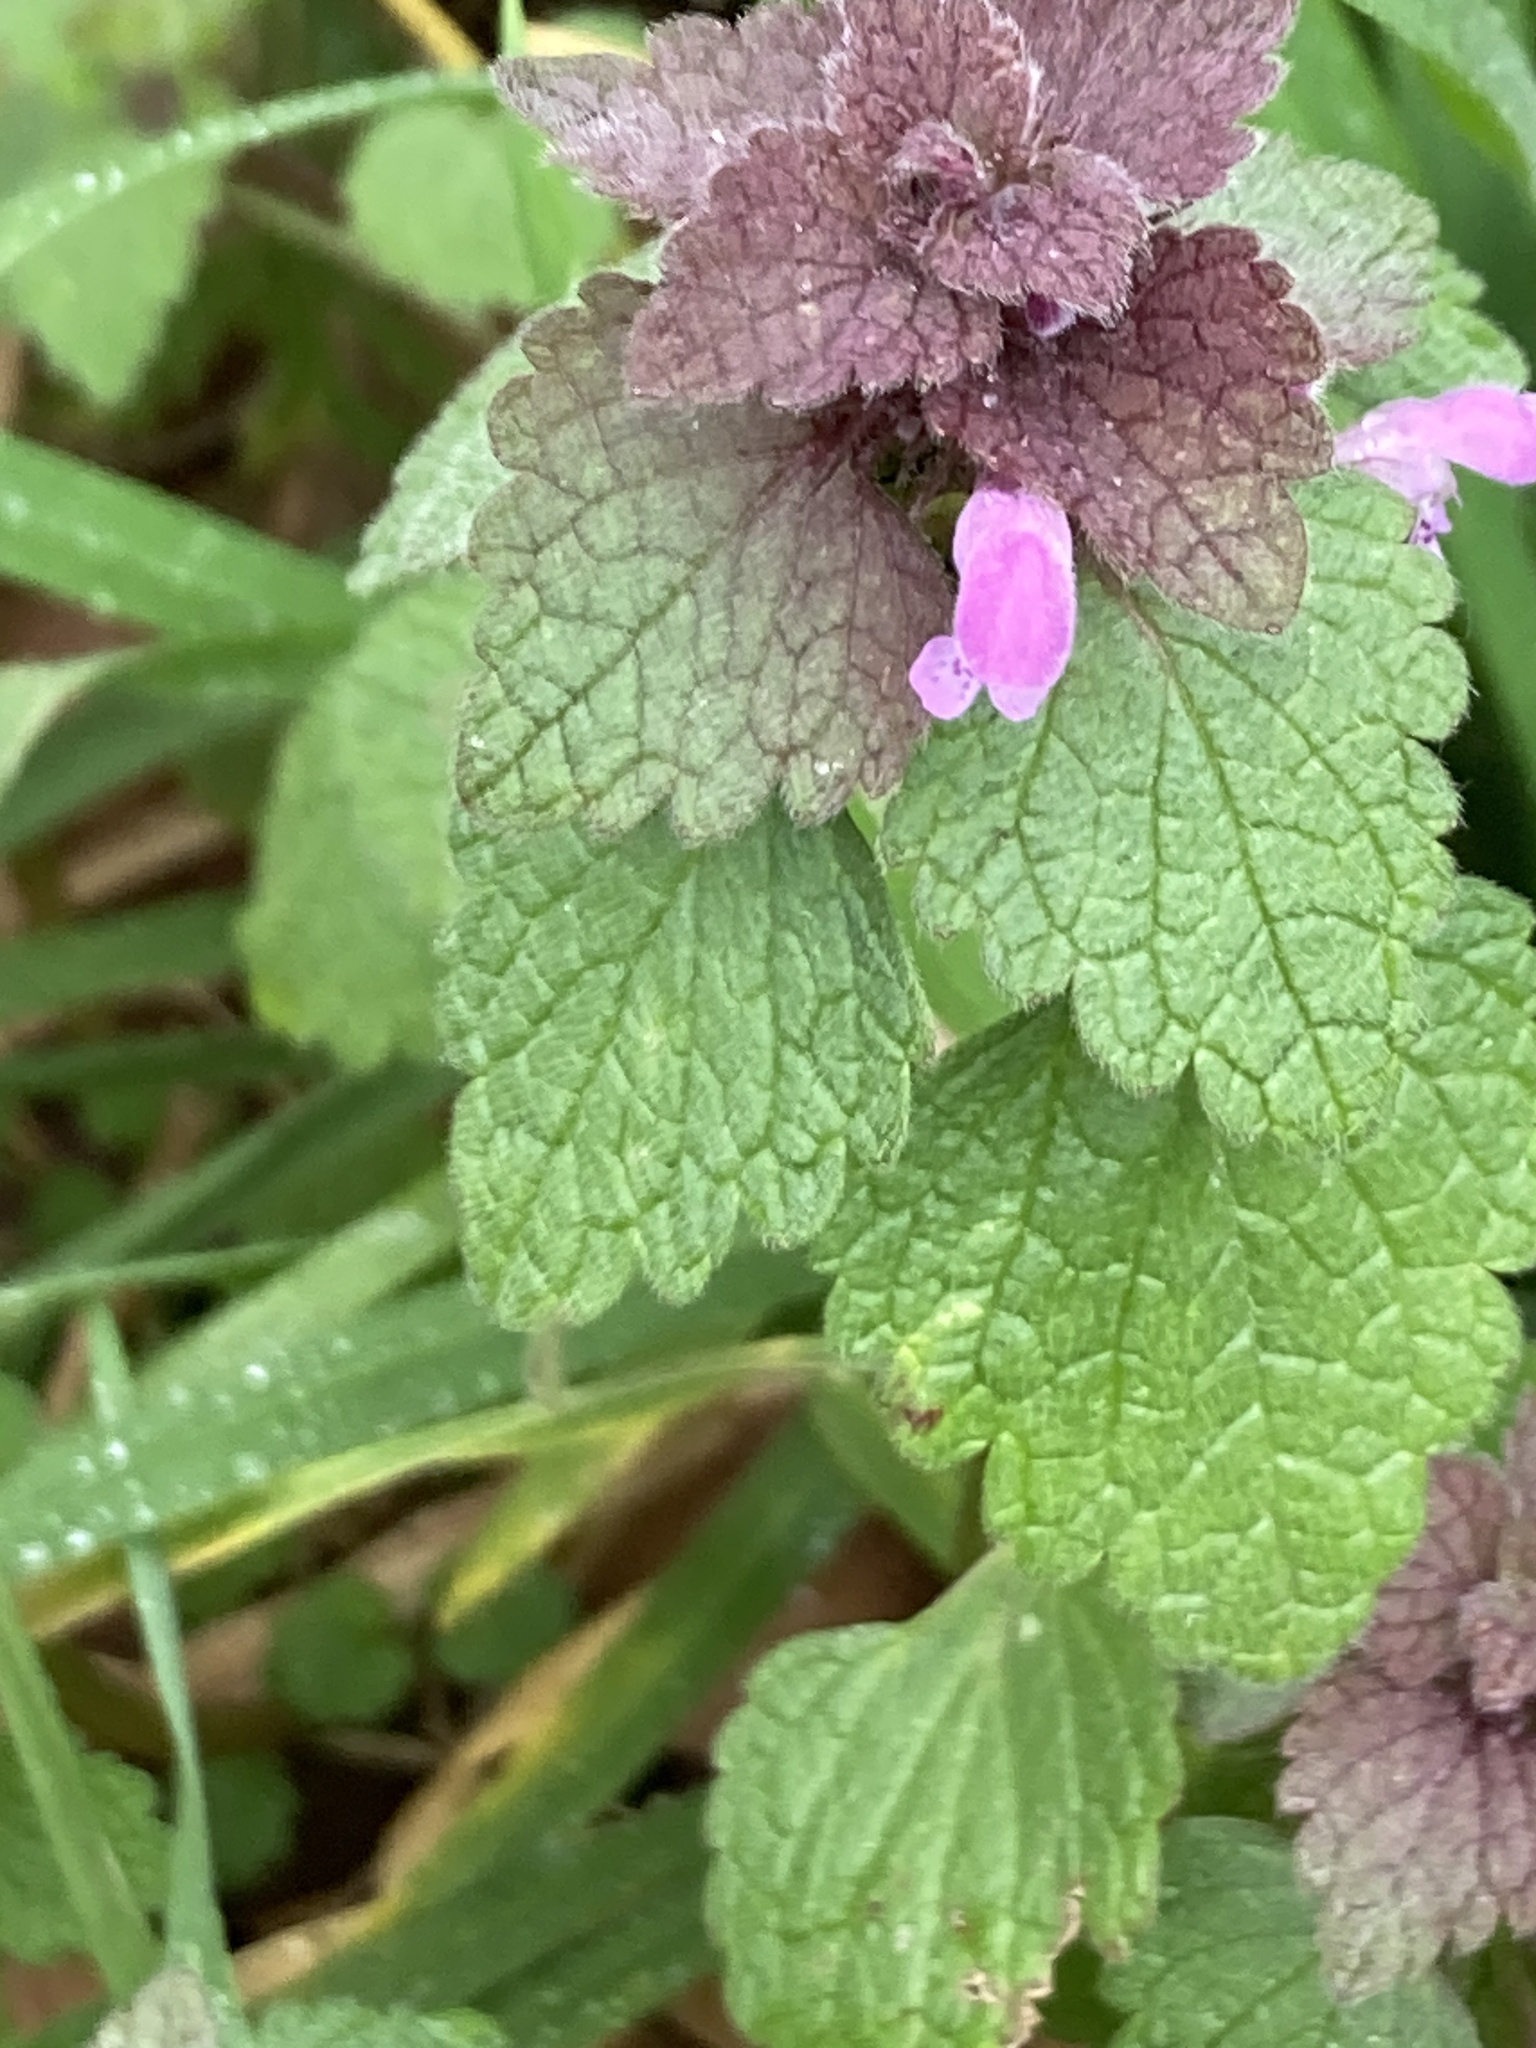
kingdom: Plantae
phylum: Tracheophyta
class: Magnoliopsida
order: Lamiales
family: Lamiaceae
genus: Lamium
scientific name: Lamium purpureum
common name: Red dead-nettle
